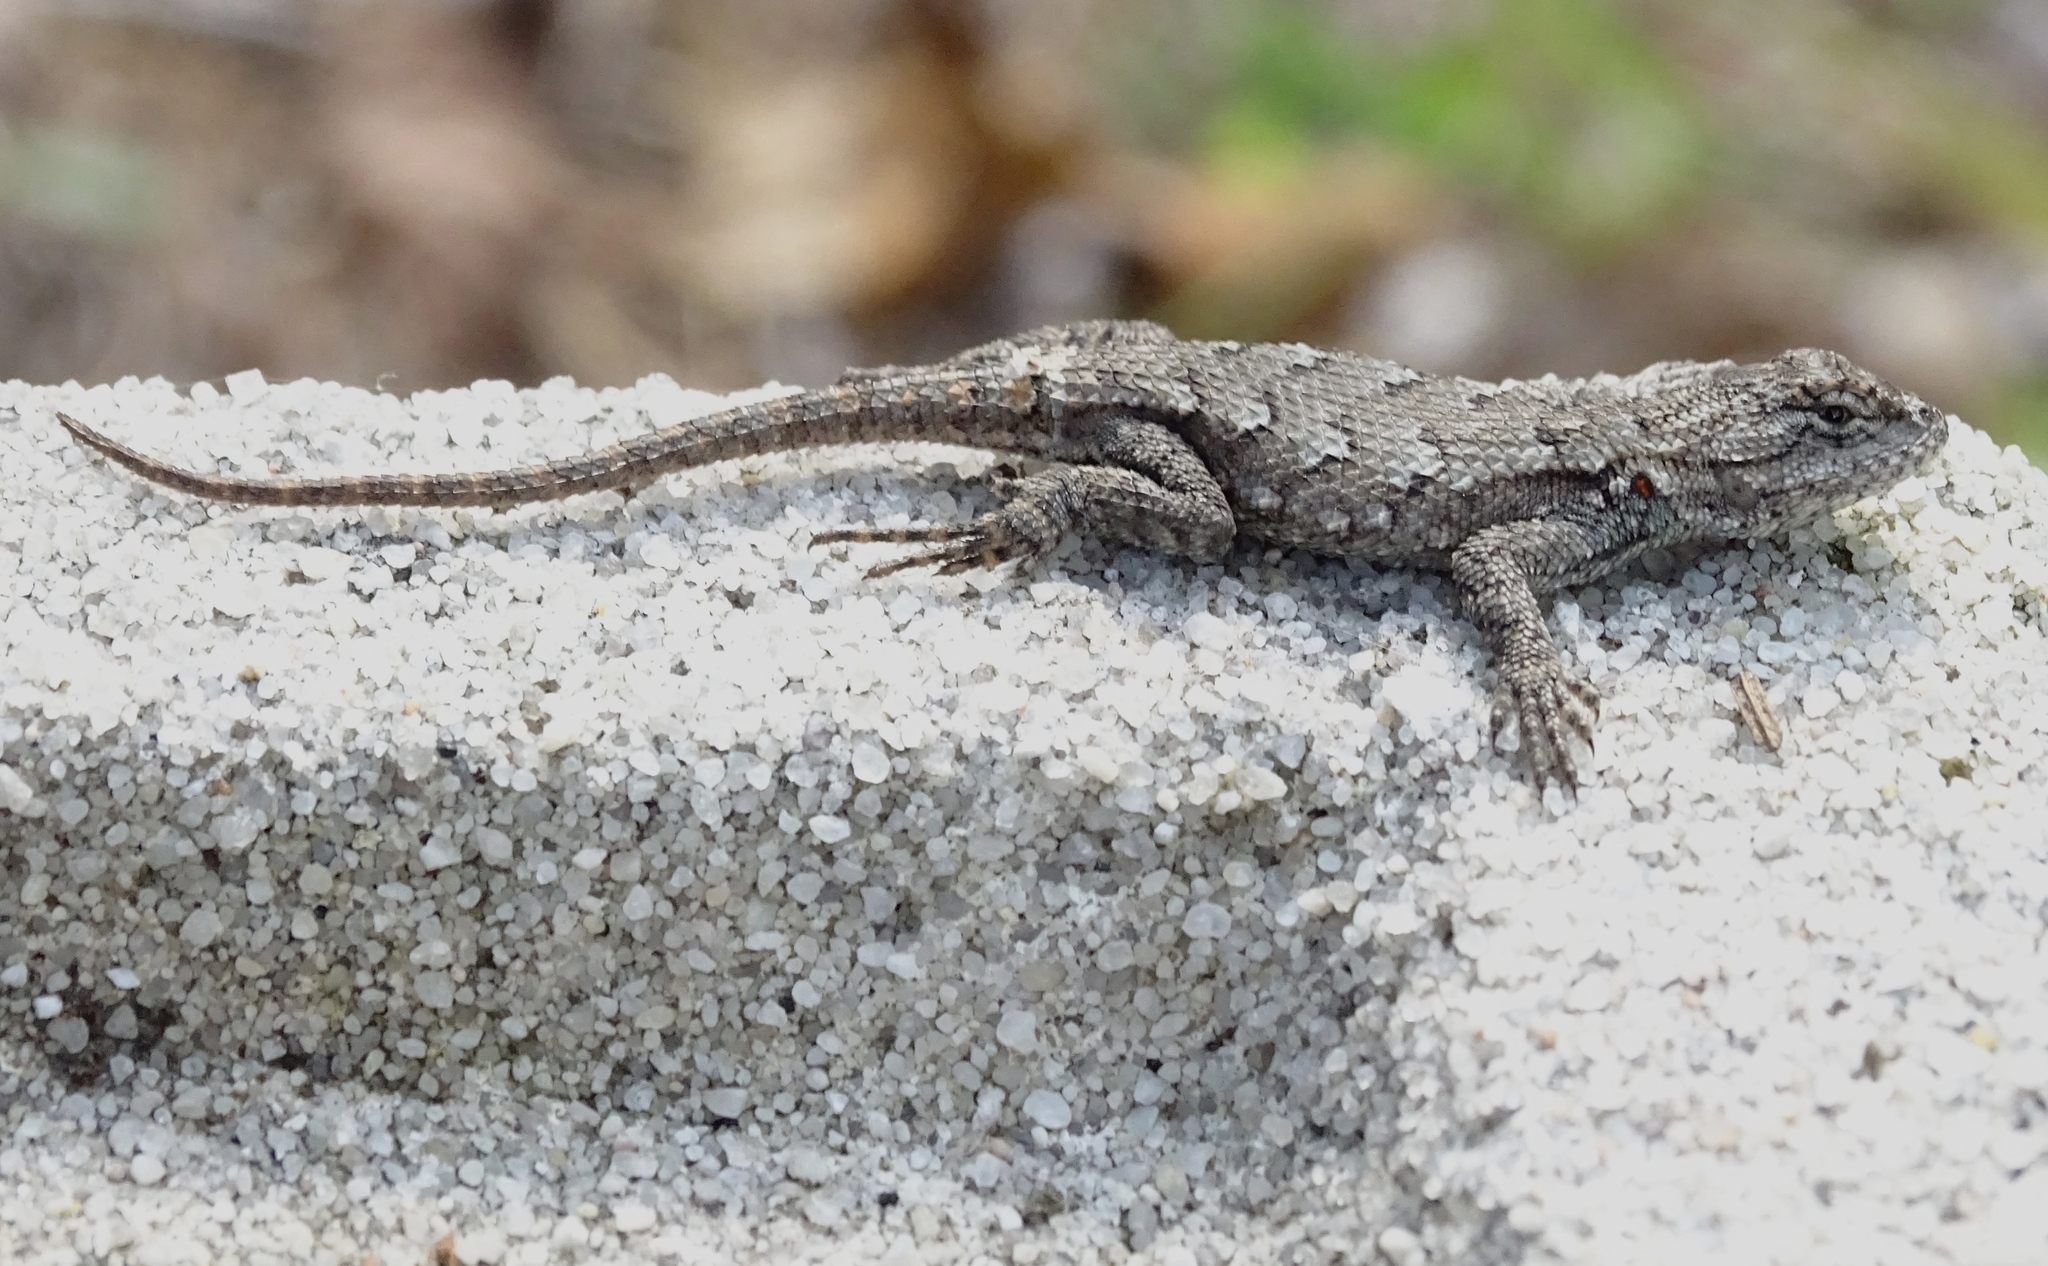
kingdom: Animalia
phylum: Chordata
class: Squamata
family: Phrynosomatidae
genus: Sceloporus
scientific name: Sceloporus undulatus
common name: Eastern fence lizard
